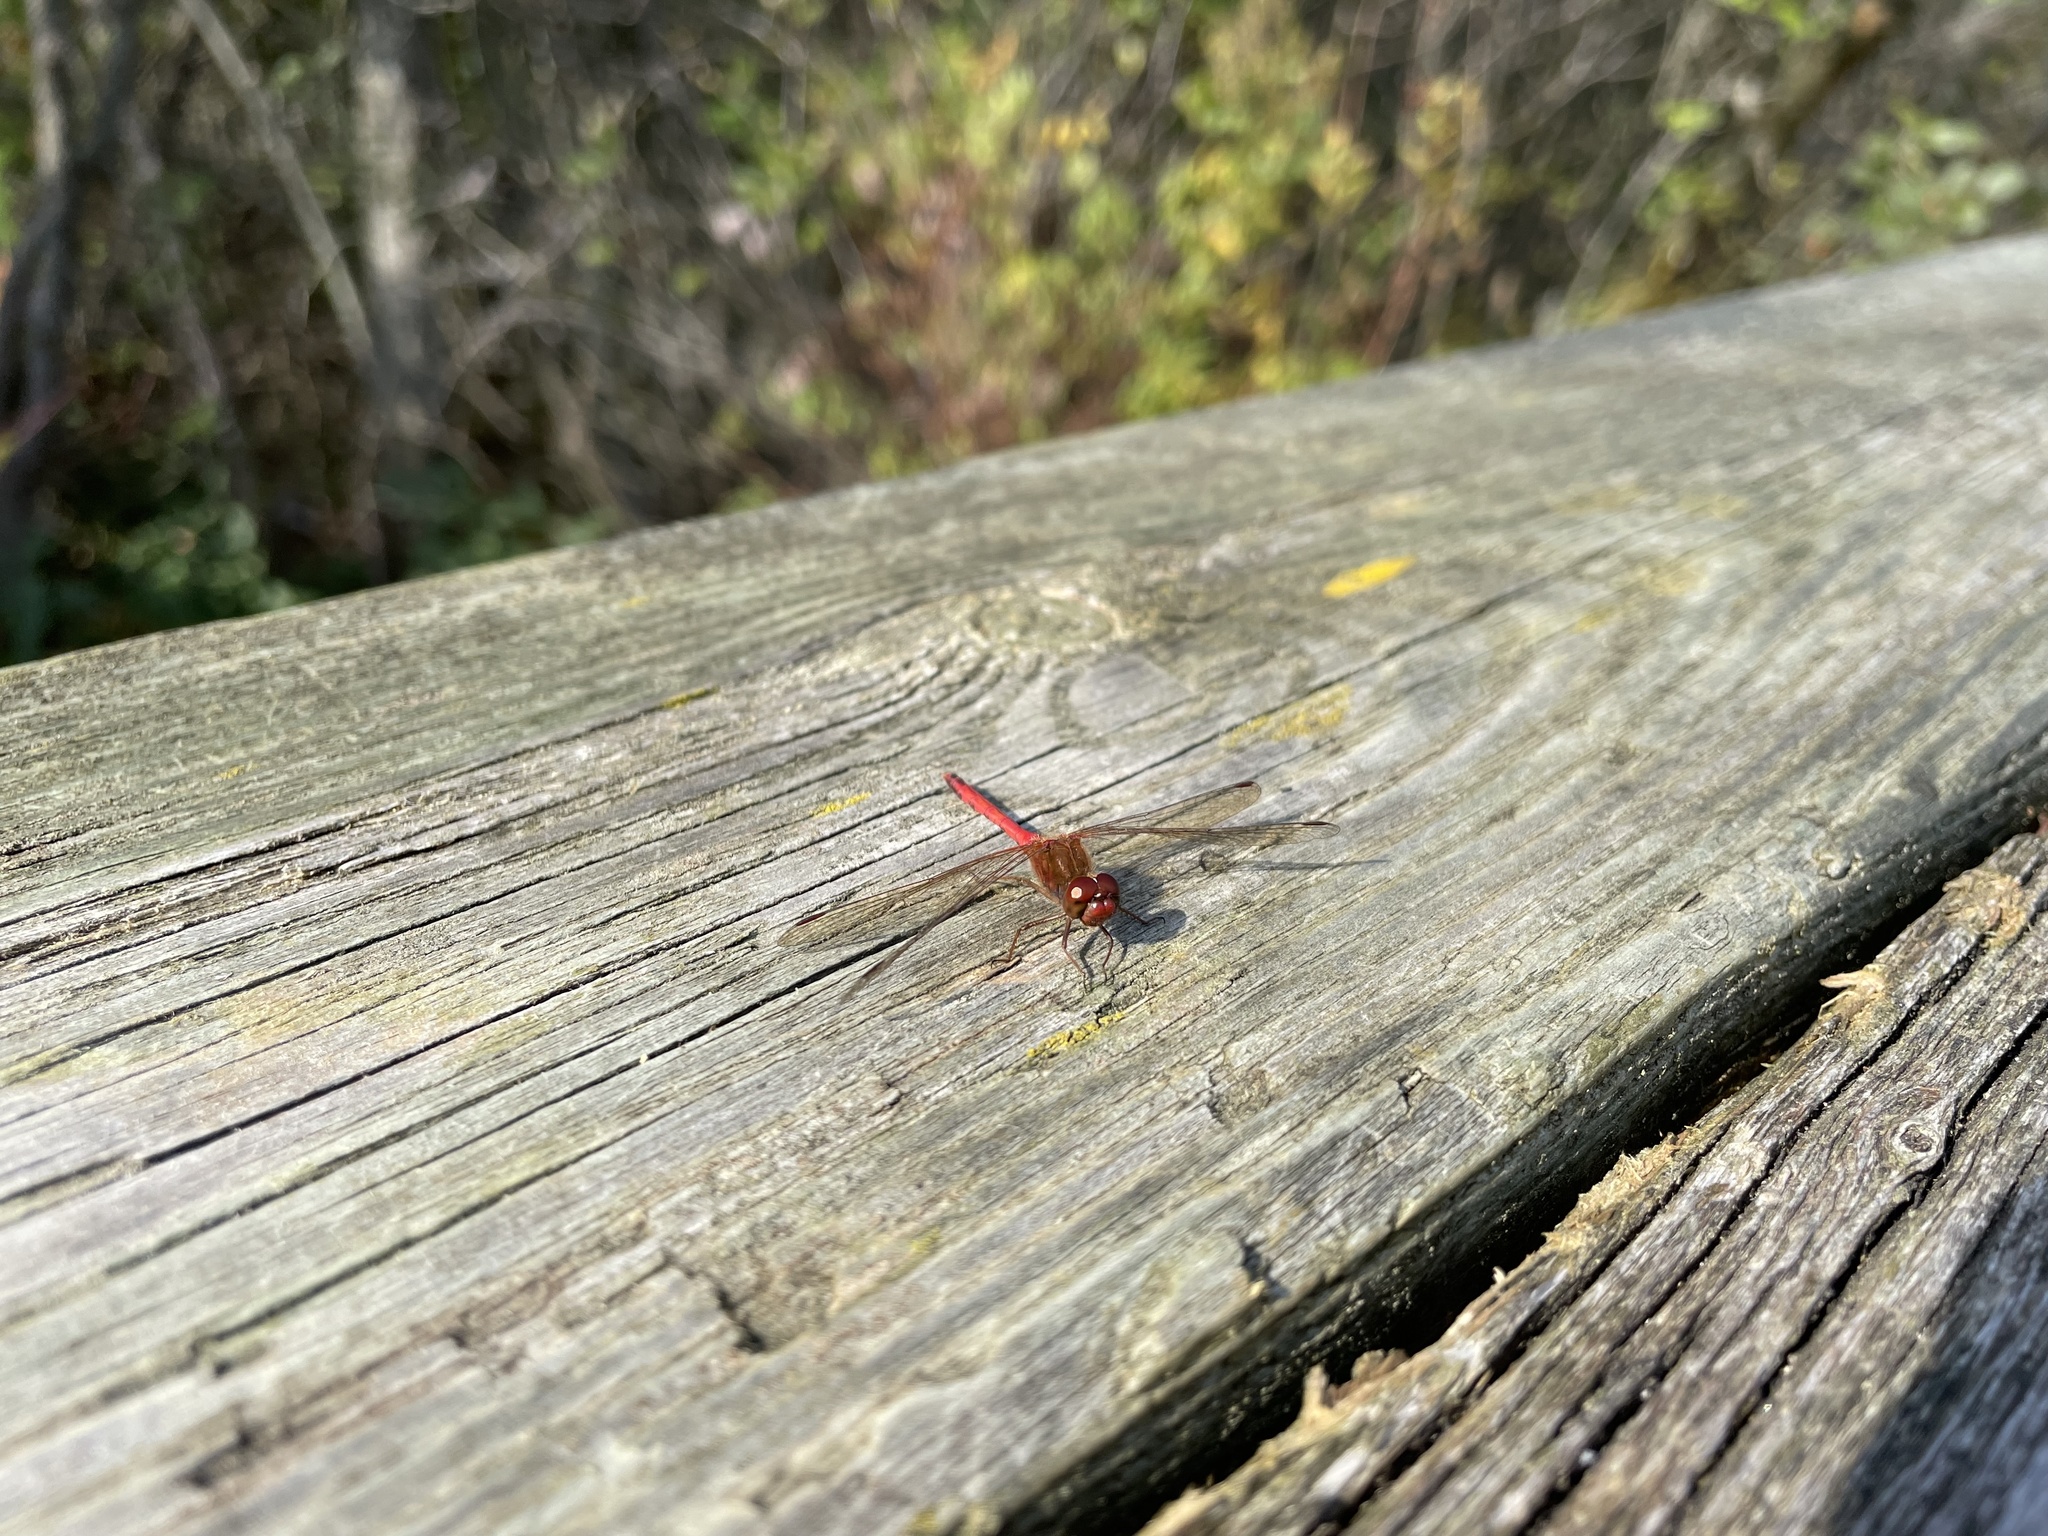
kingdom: Animalia
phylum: Arthropoda
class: Insecta
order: Odonata
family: Libellulidae
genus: Sympetrum
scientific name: Sympetrum vicinum
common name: Autumn meadowhawk
